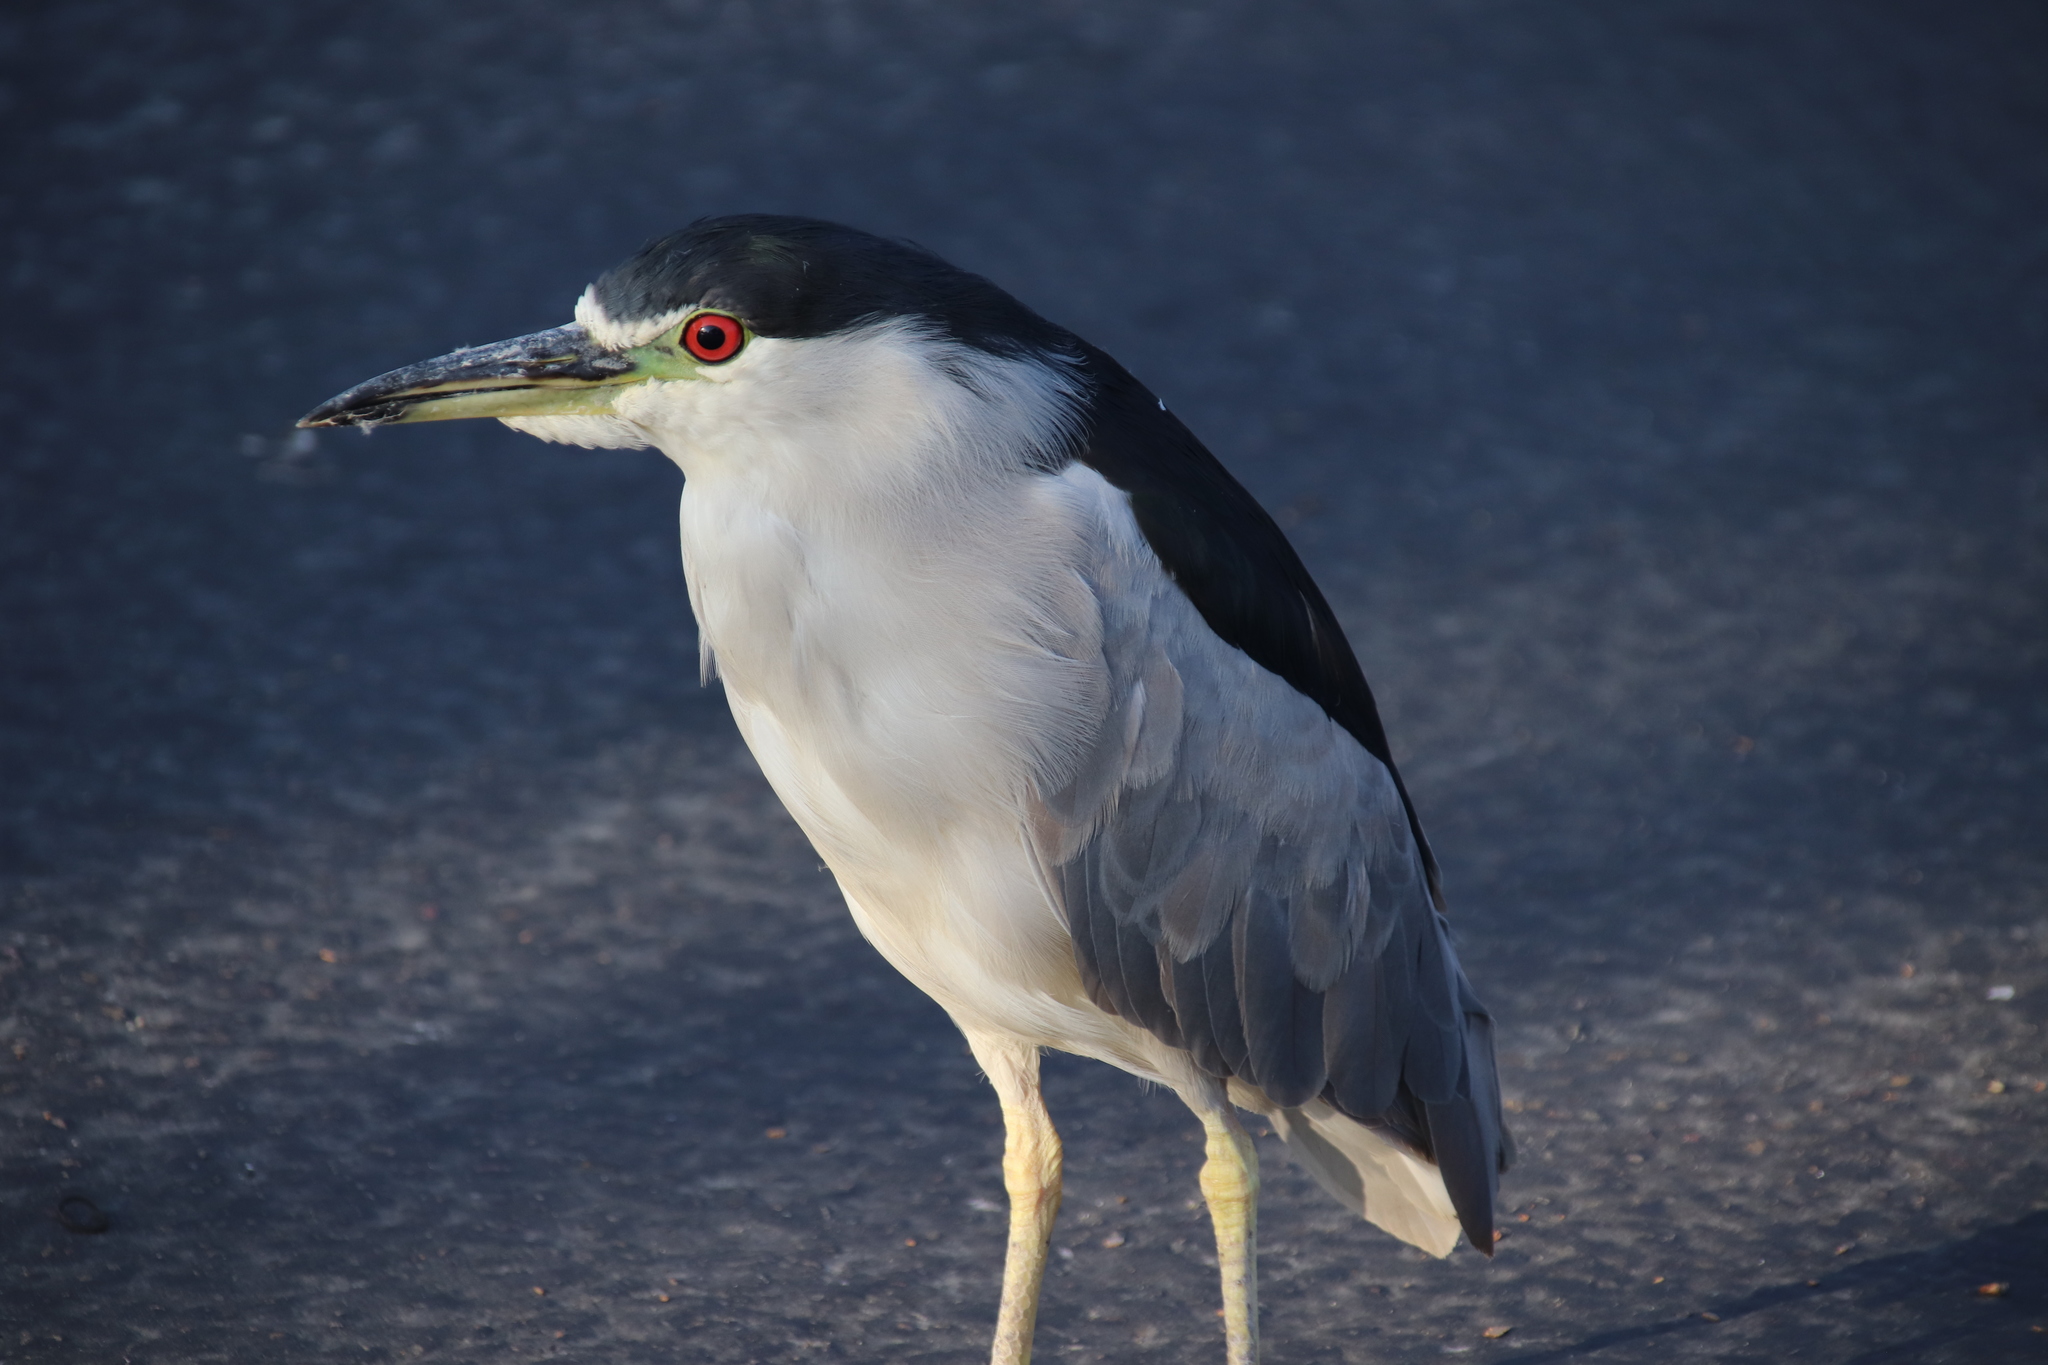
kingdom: Animalia
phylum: Chordata
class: Aves
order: Pelecaniformes
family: Ardeidae
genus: Nycticorax
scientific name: Nycticorax nycticorax
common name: Black-crowned night heron
